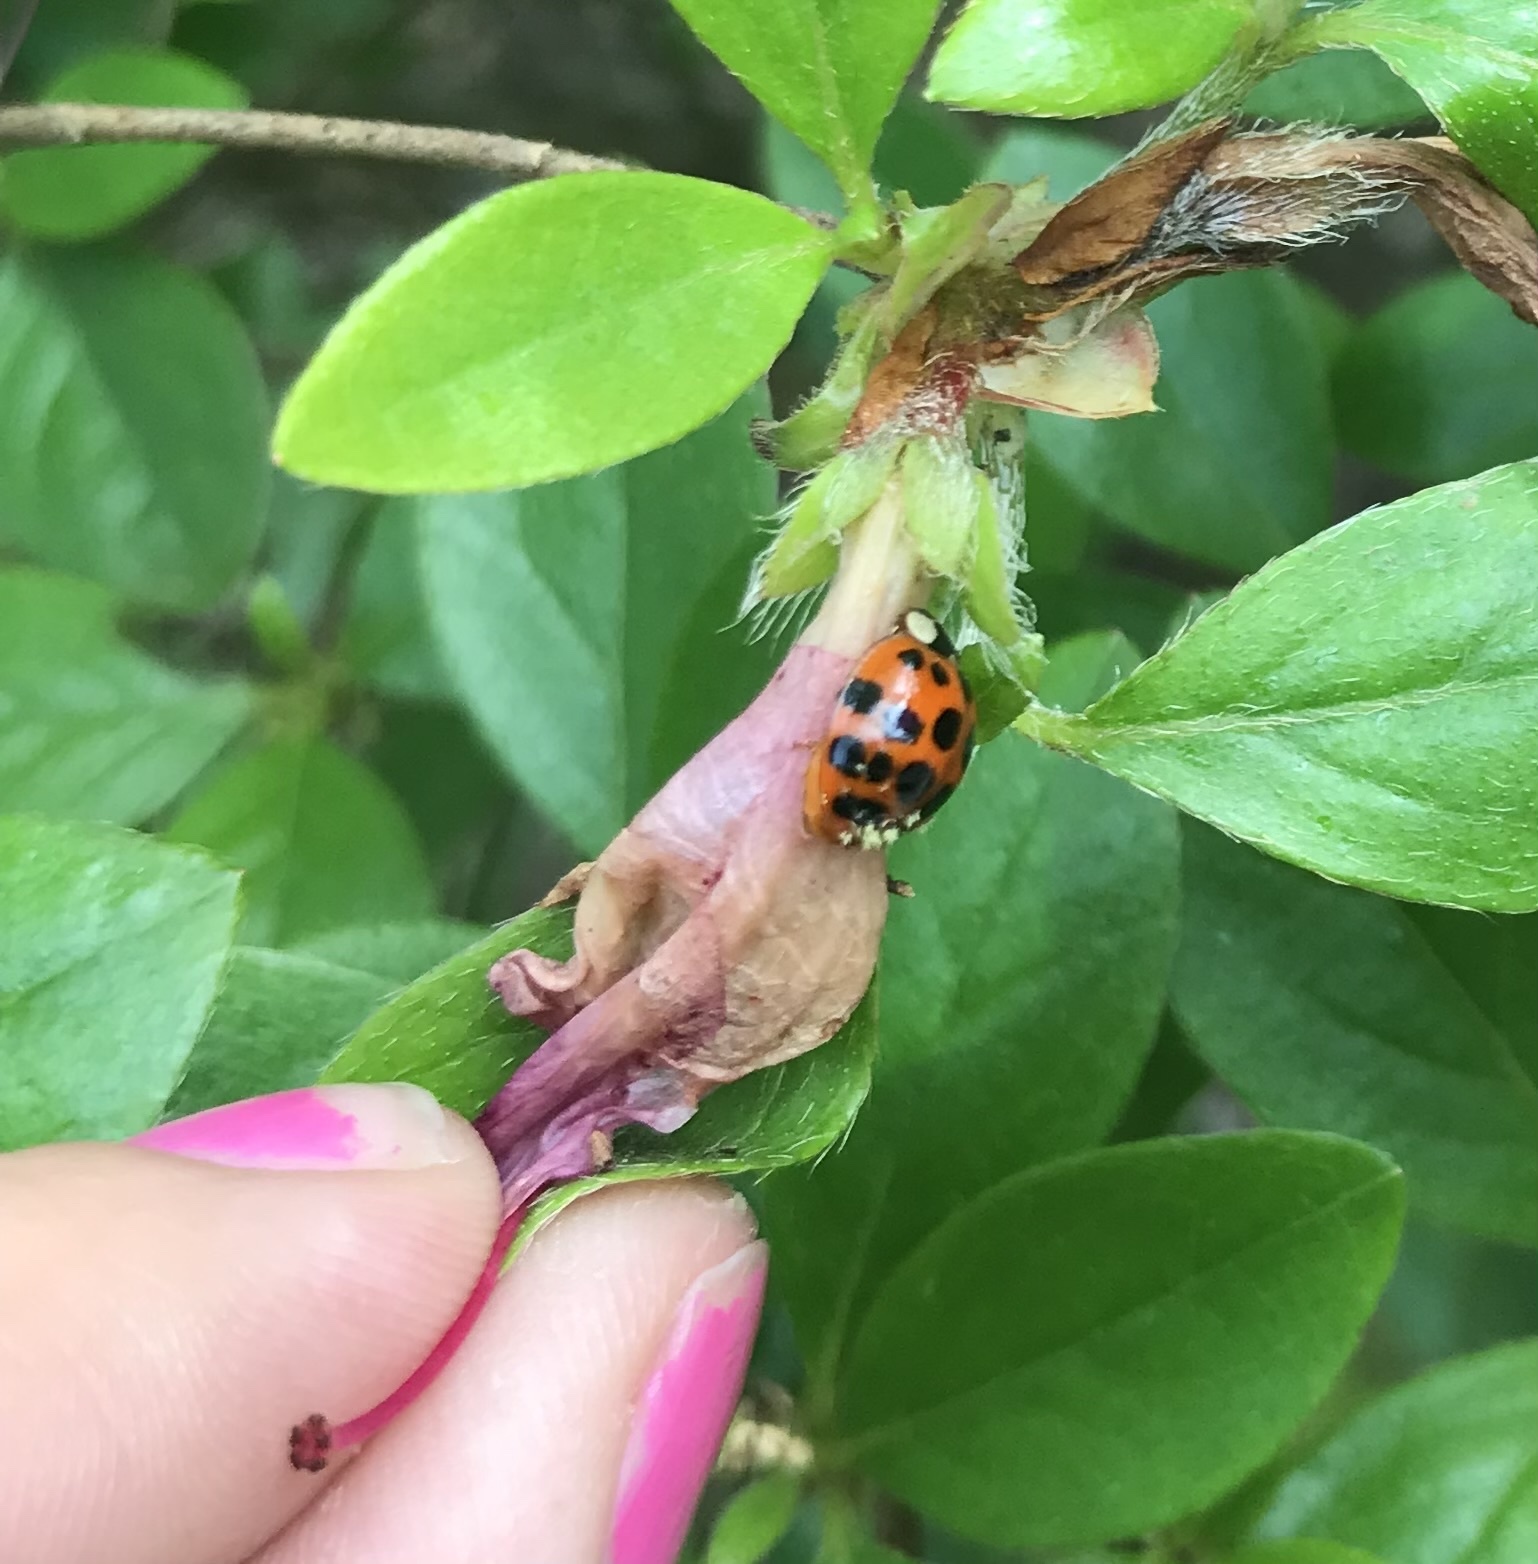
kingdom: Animalia
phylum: Arthropoda
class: Insecta
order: Coleoptera
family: Coccinellidae
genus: Harmonia
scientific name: Harmonia axyridis
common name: Harlequin ladybird
